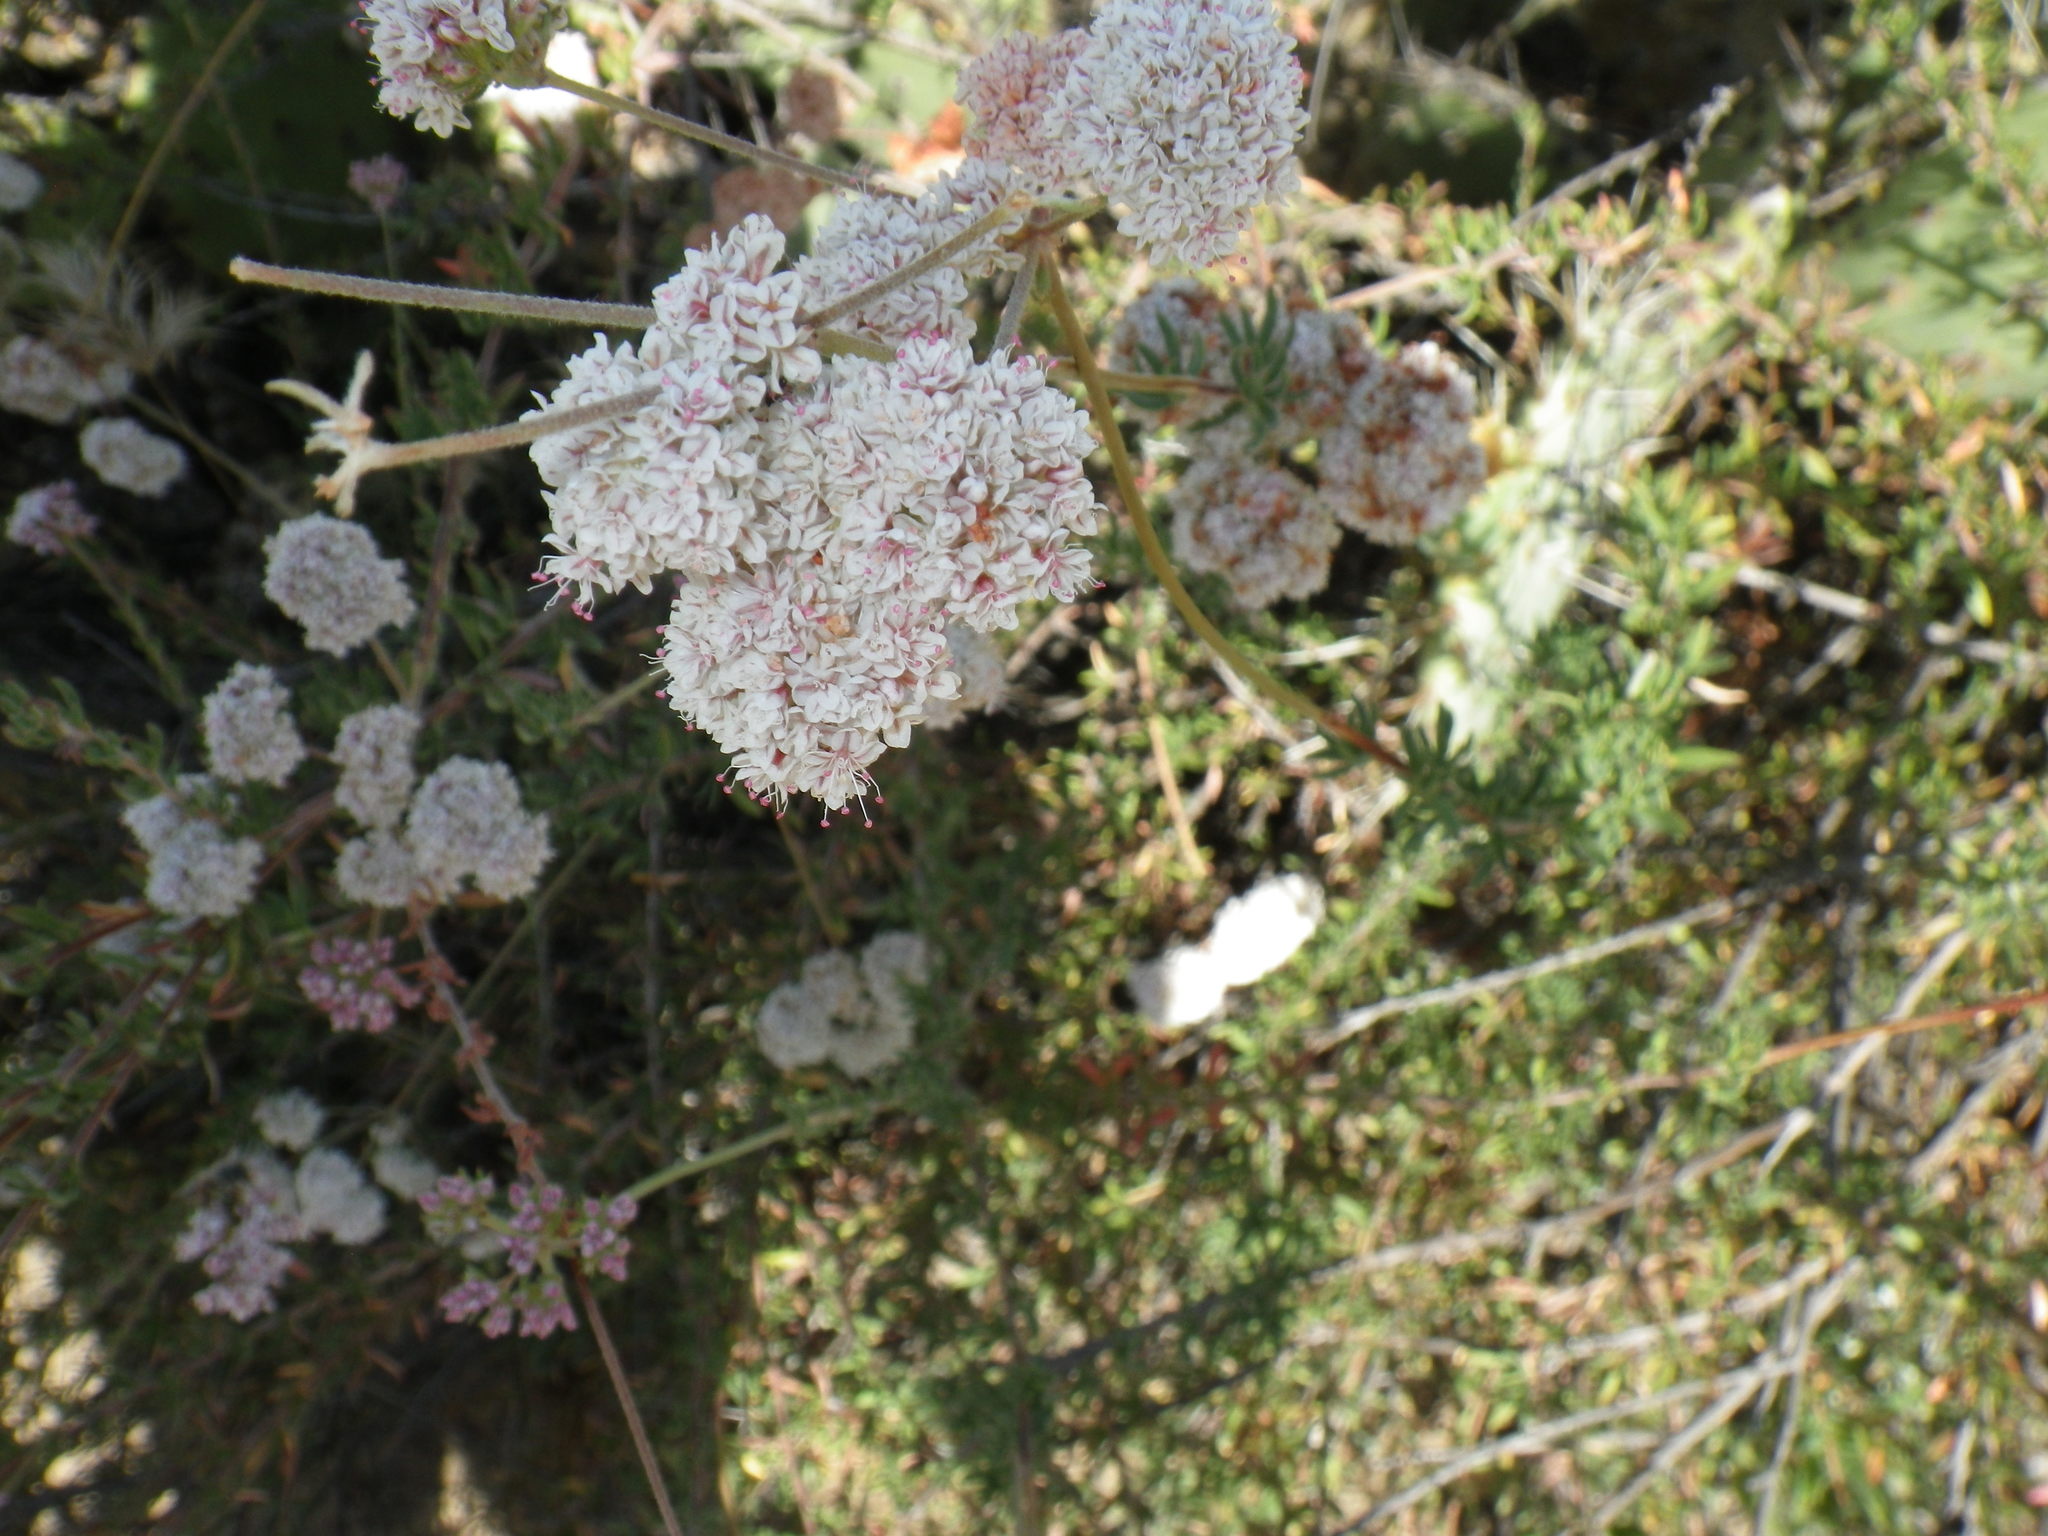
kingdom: Plantae
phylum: Tracheophyta
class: Magnoliopsida
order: Caryophyllales
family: Polygonaceae
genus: Eriogonum
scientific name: Eriogonum fasciculatum
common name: California wild buckwheat
